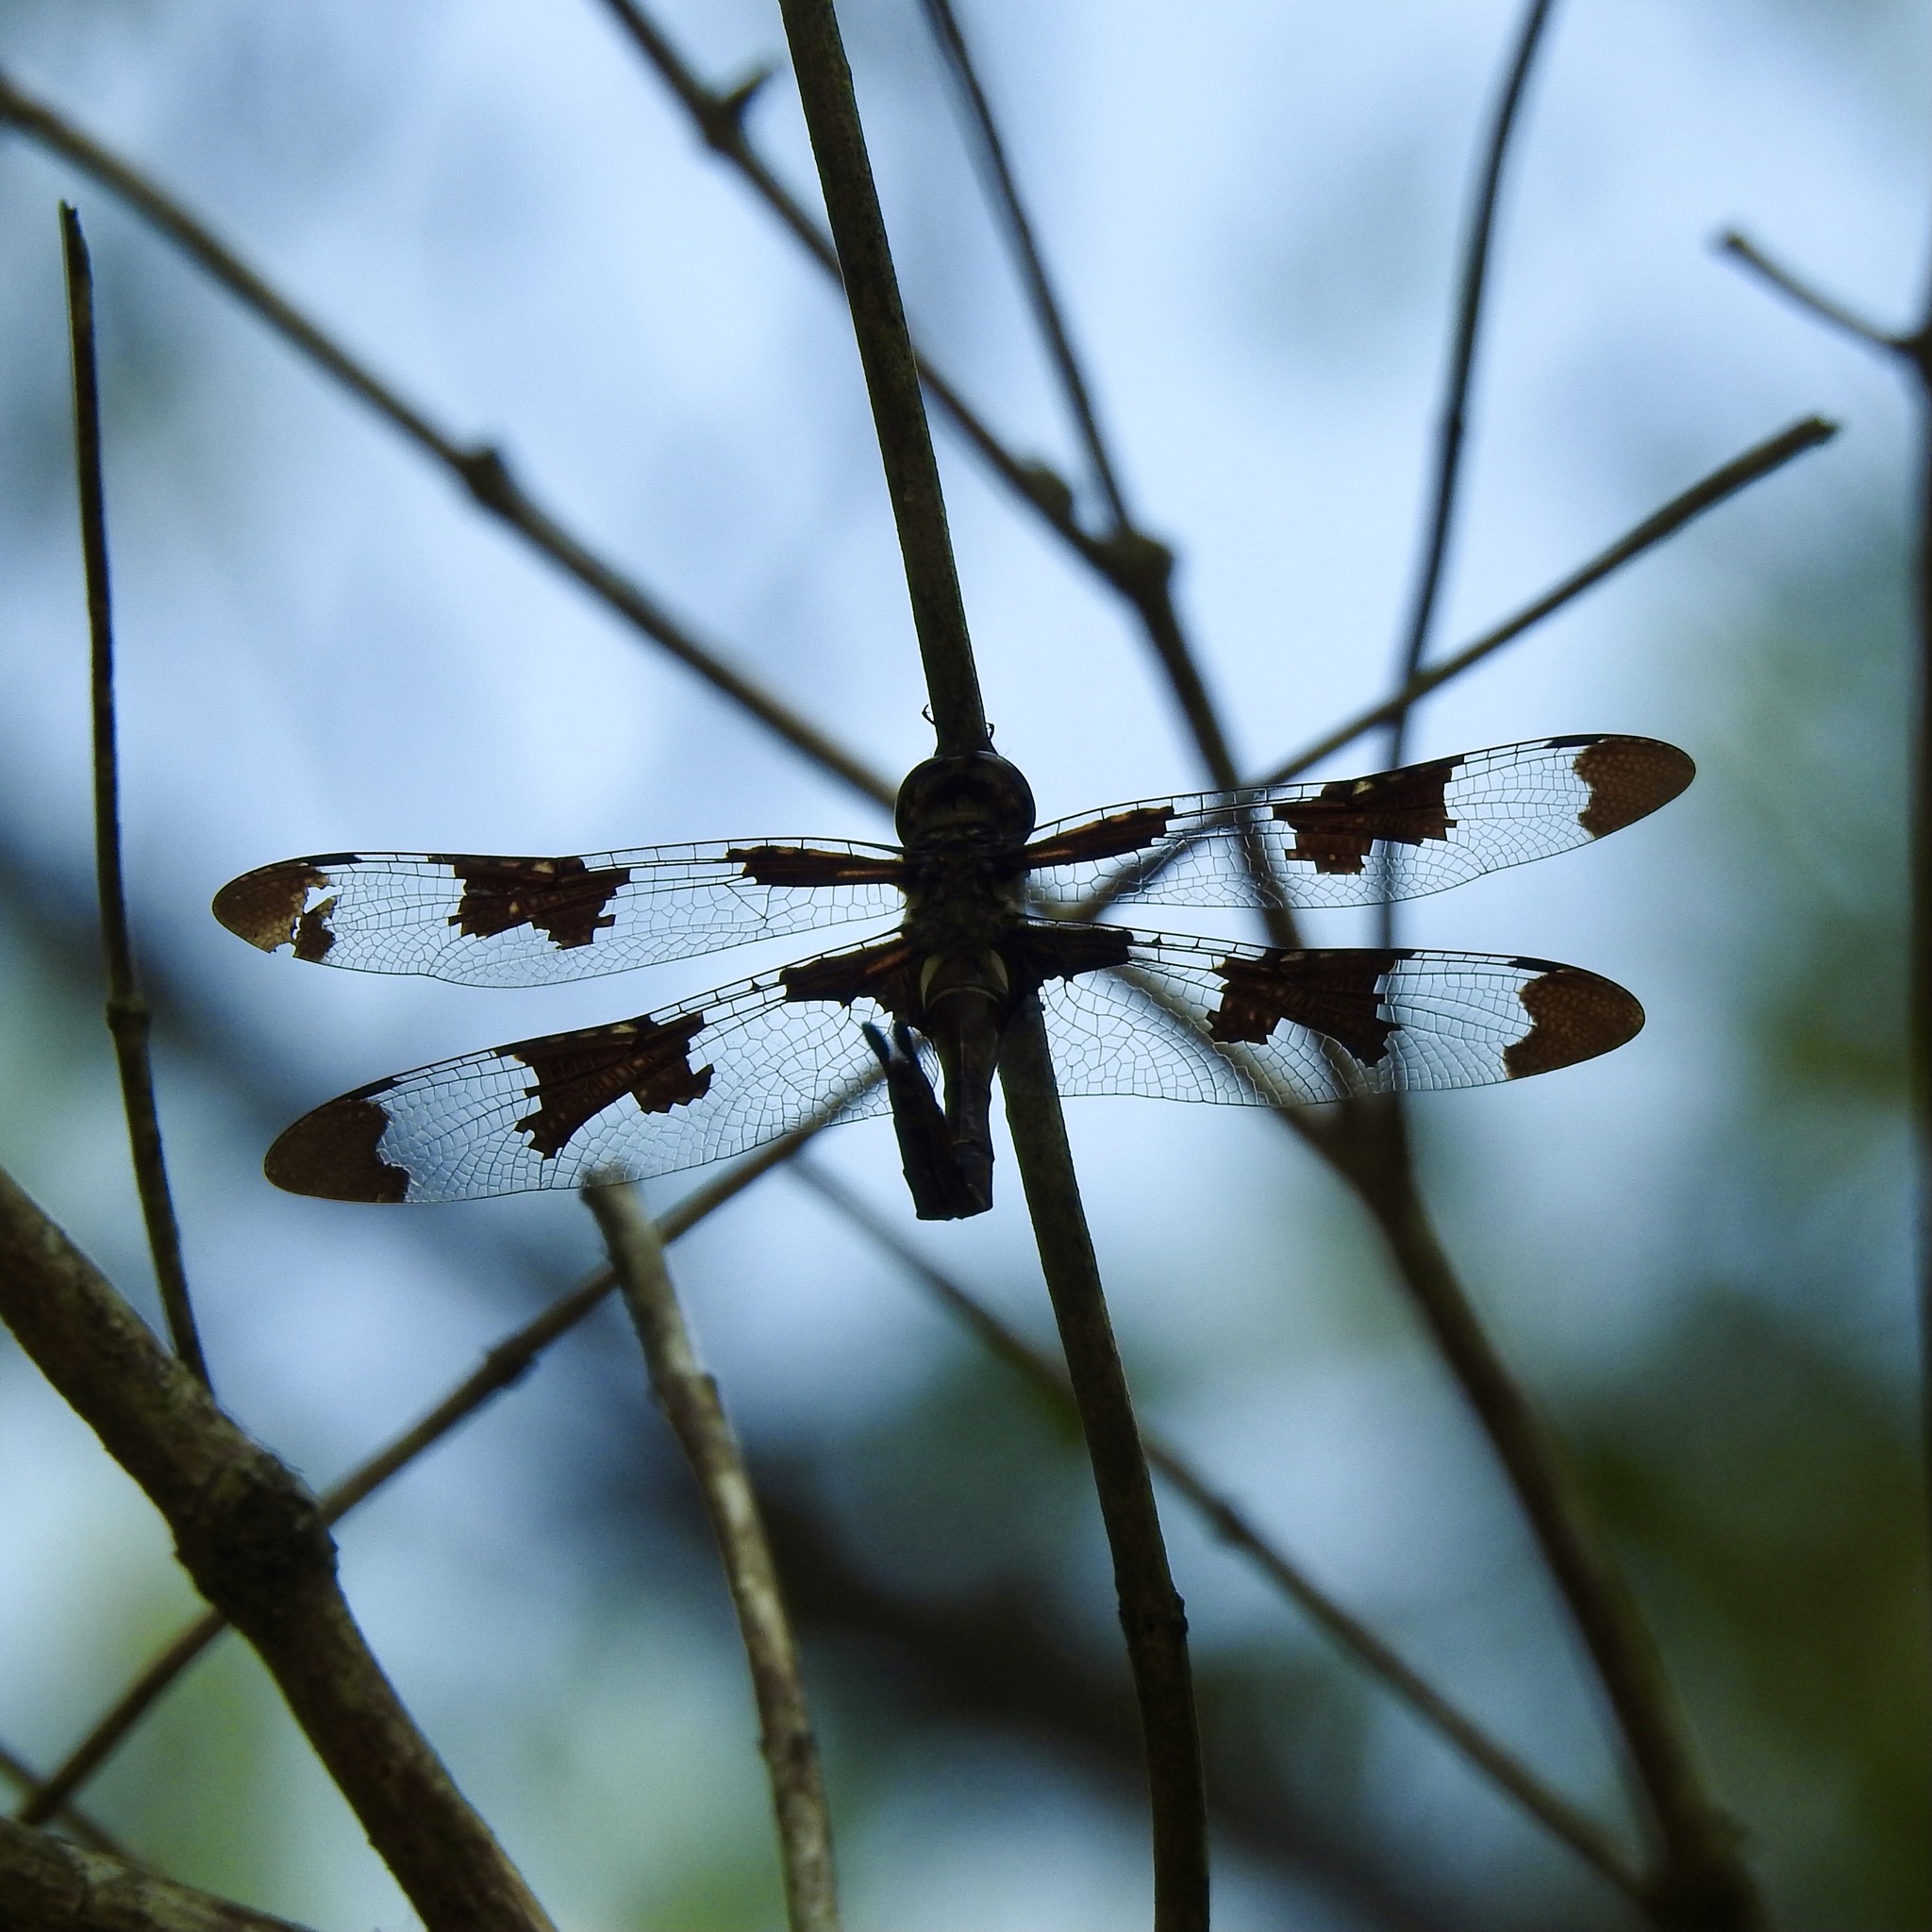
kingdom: Animalia
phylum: Arthropoda
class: Insecta
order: Odonata
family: Corduliidae
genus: Epitheca
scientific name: Epitheca princeps
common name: Prince baskettail
